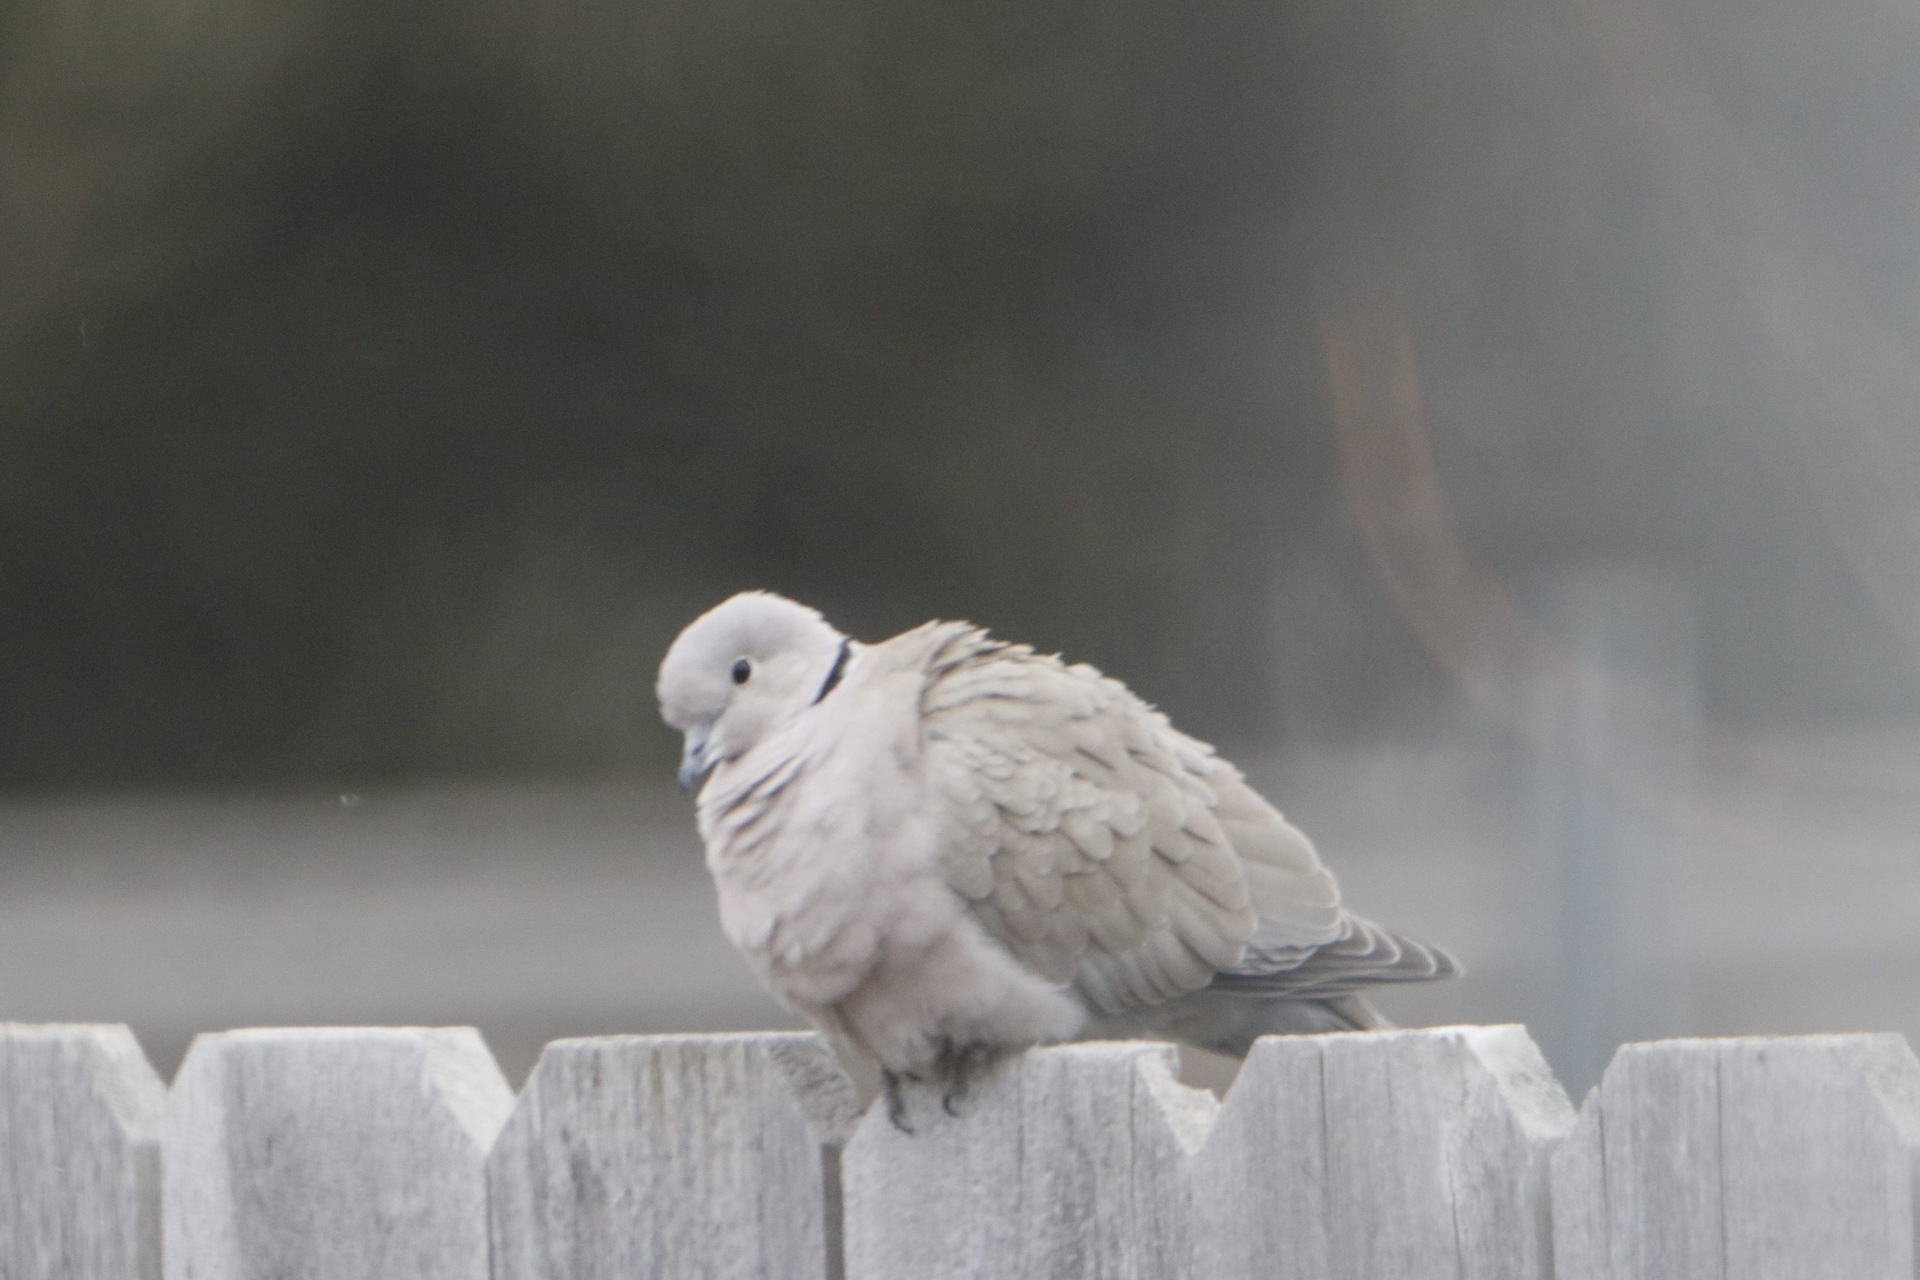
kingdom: Animalia
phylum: Chordata
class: Aves
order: Columbiformes
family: Columbidae
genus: Streptopelia
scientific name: Streptopelia decaocto
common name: Eurasian collared dove
